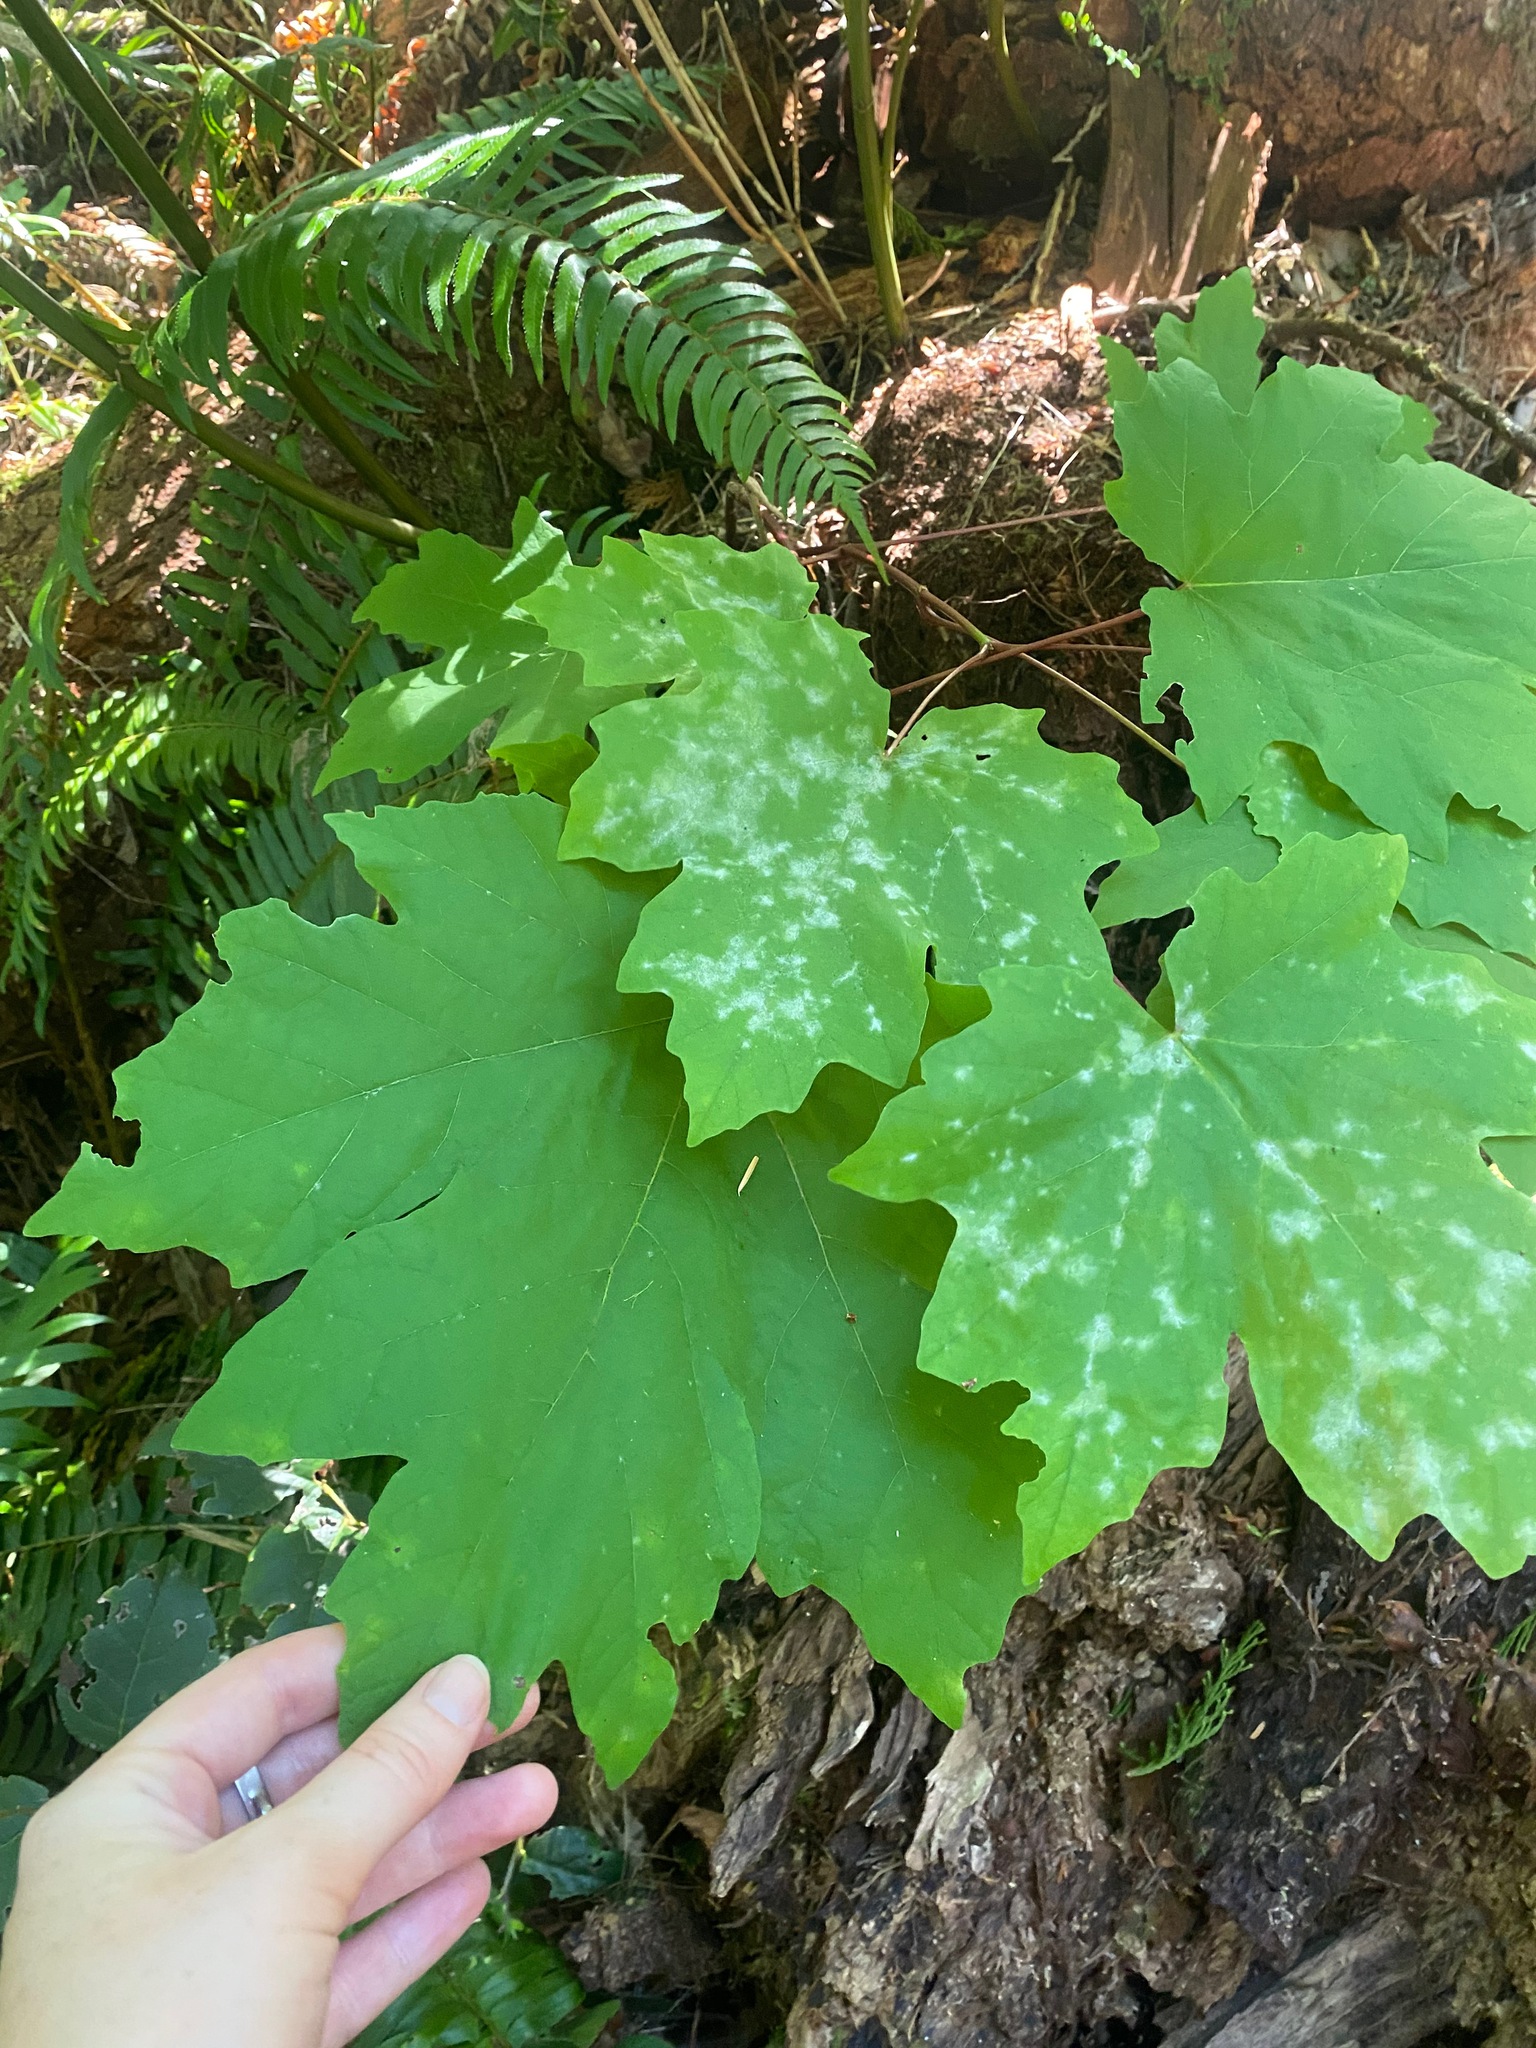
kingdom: Plantae
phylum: Tracheophyta
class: Magnoliopsida
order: Sapindales
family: Sapindaceae
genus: Acer
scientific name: Acer macrophyllum
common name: Oregon maple
